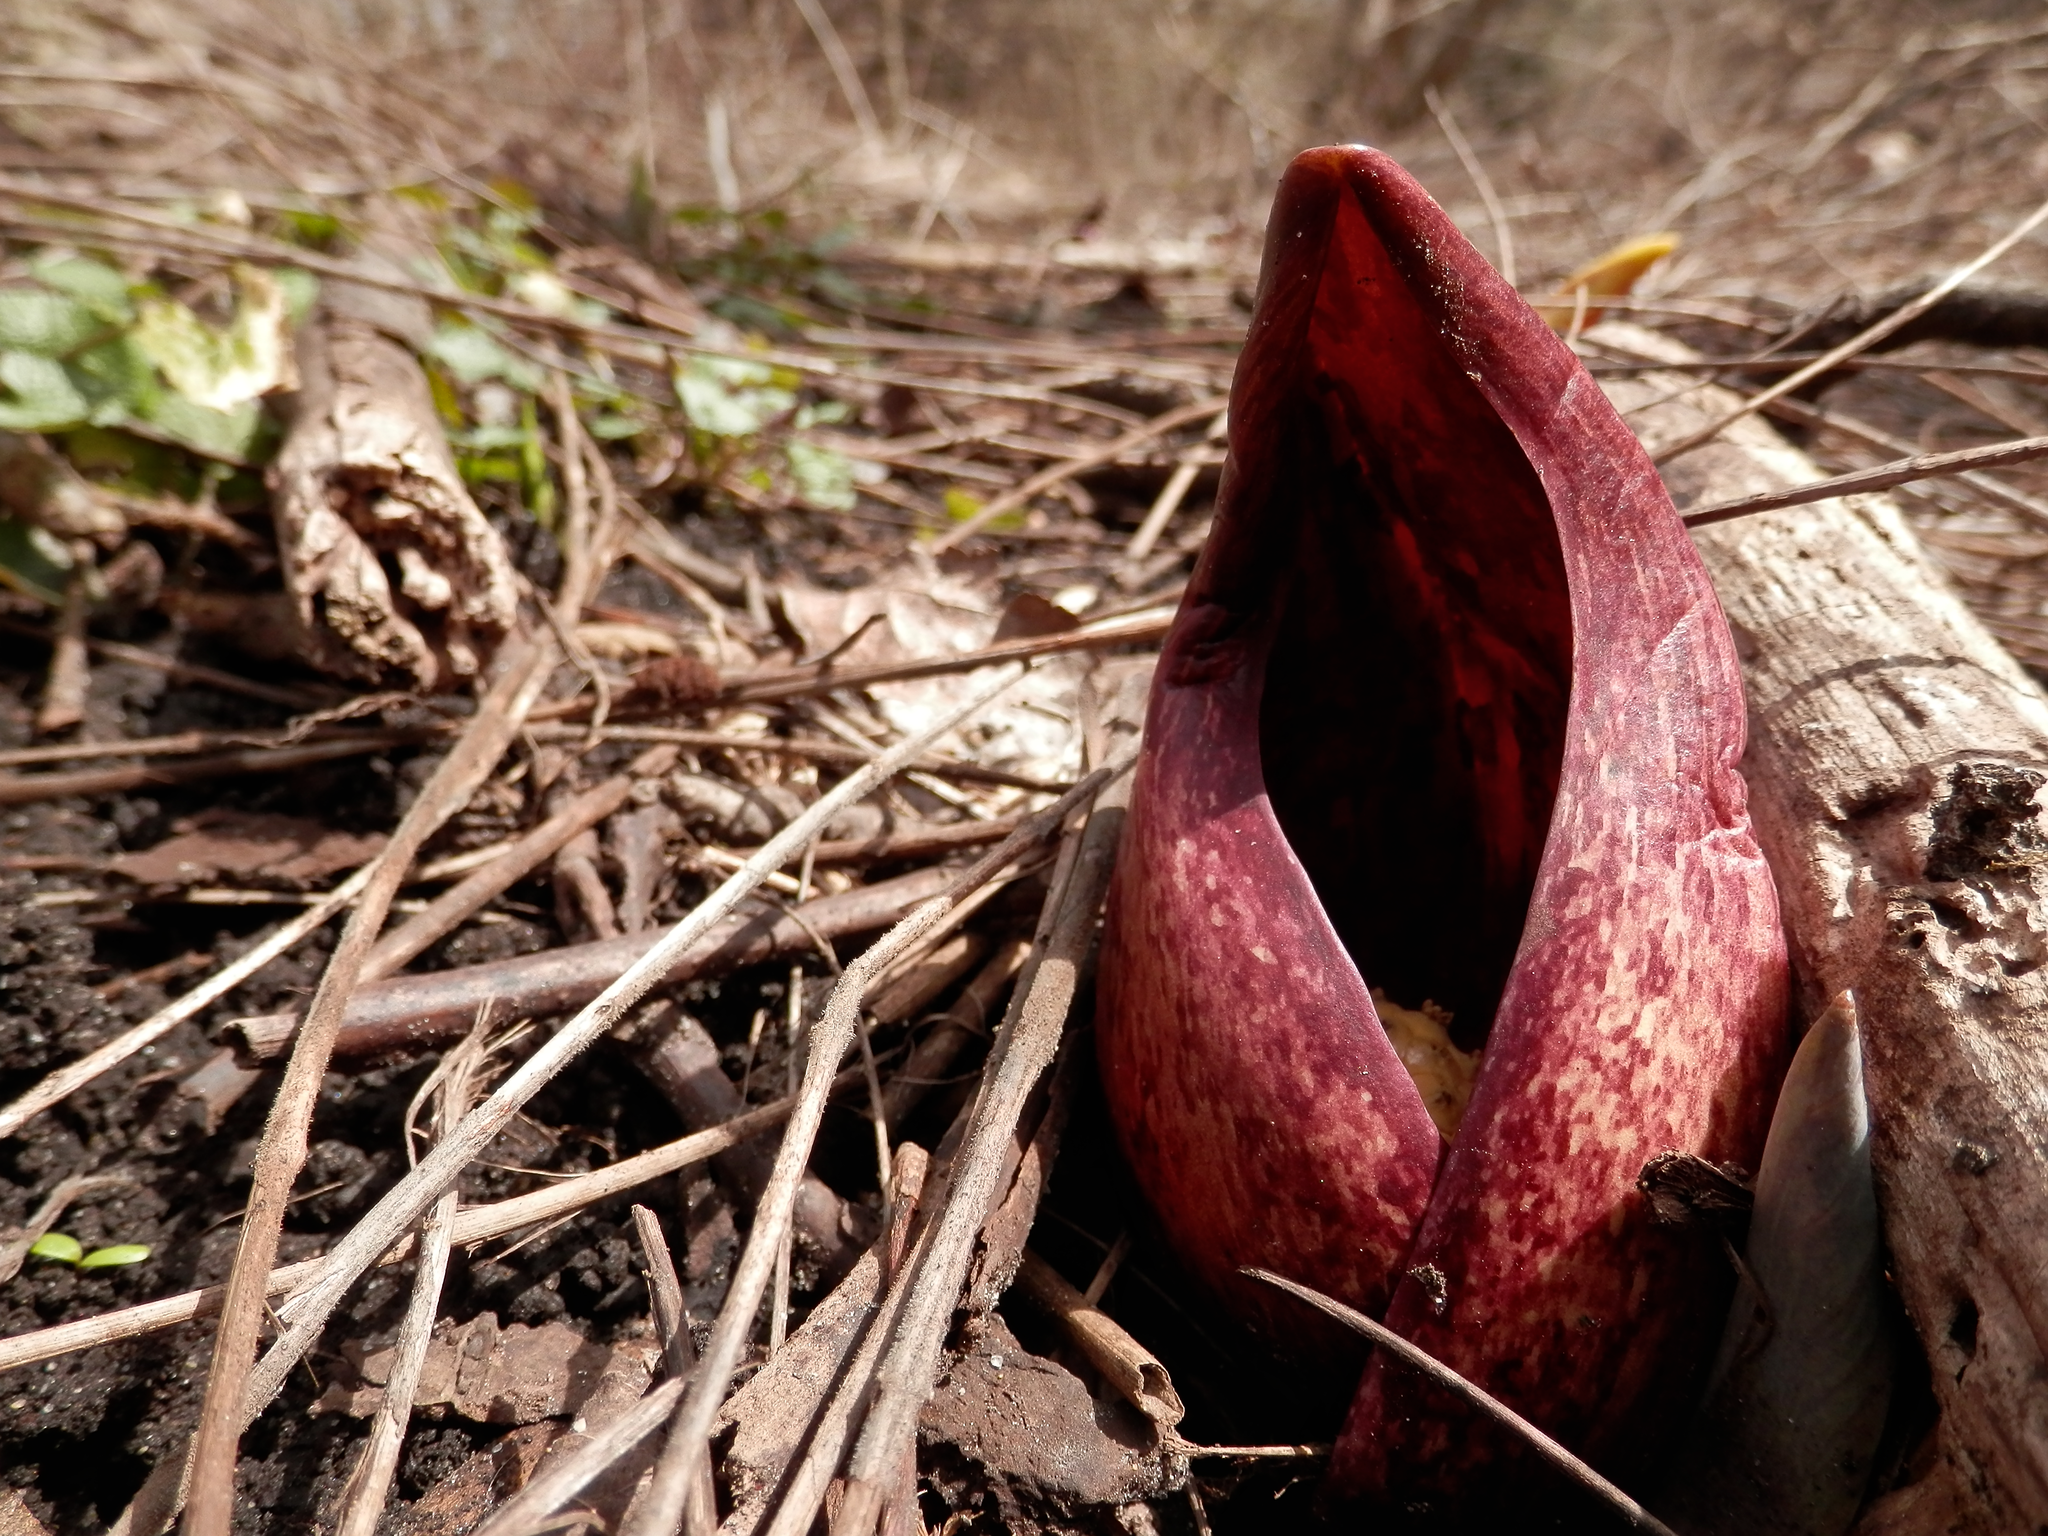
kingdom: Plantae
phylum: Tracheophyta
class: Liliopsida
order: Alismatales
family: Araceae
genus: Symplocarpus
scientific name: Symplocarpus foetidus
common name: Eastern skunk cabbage
